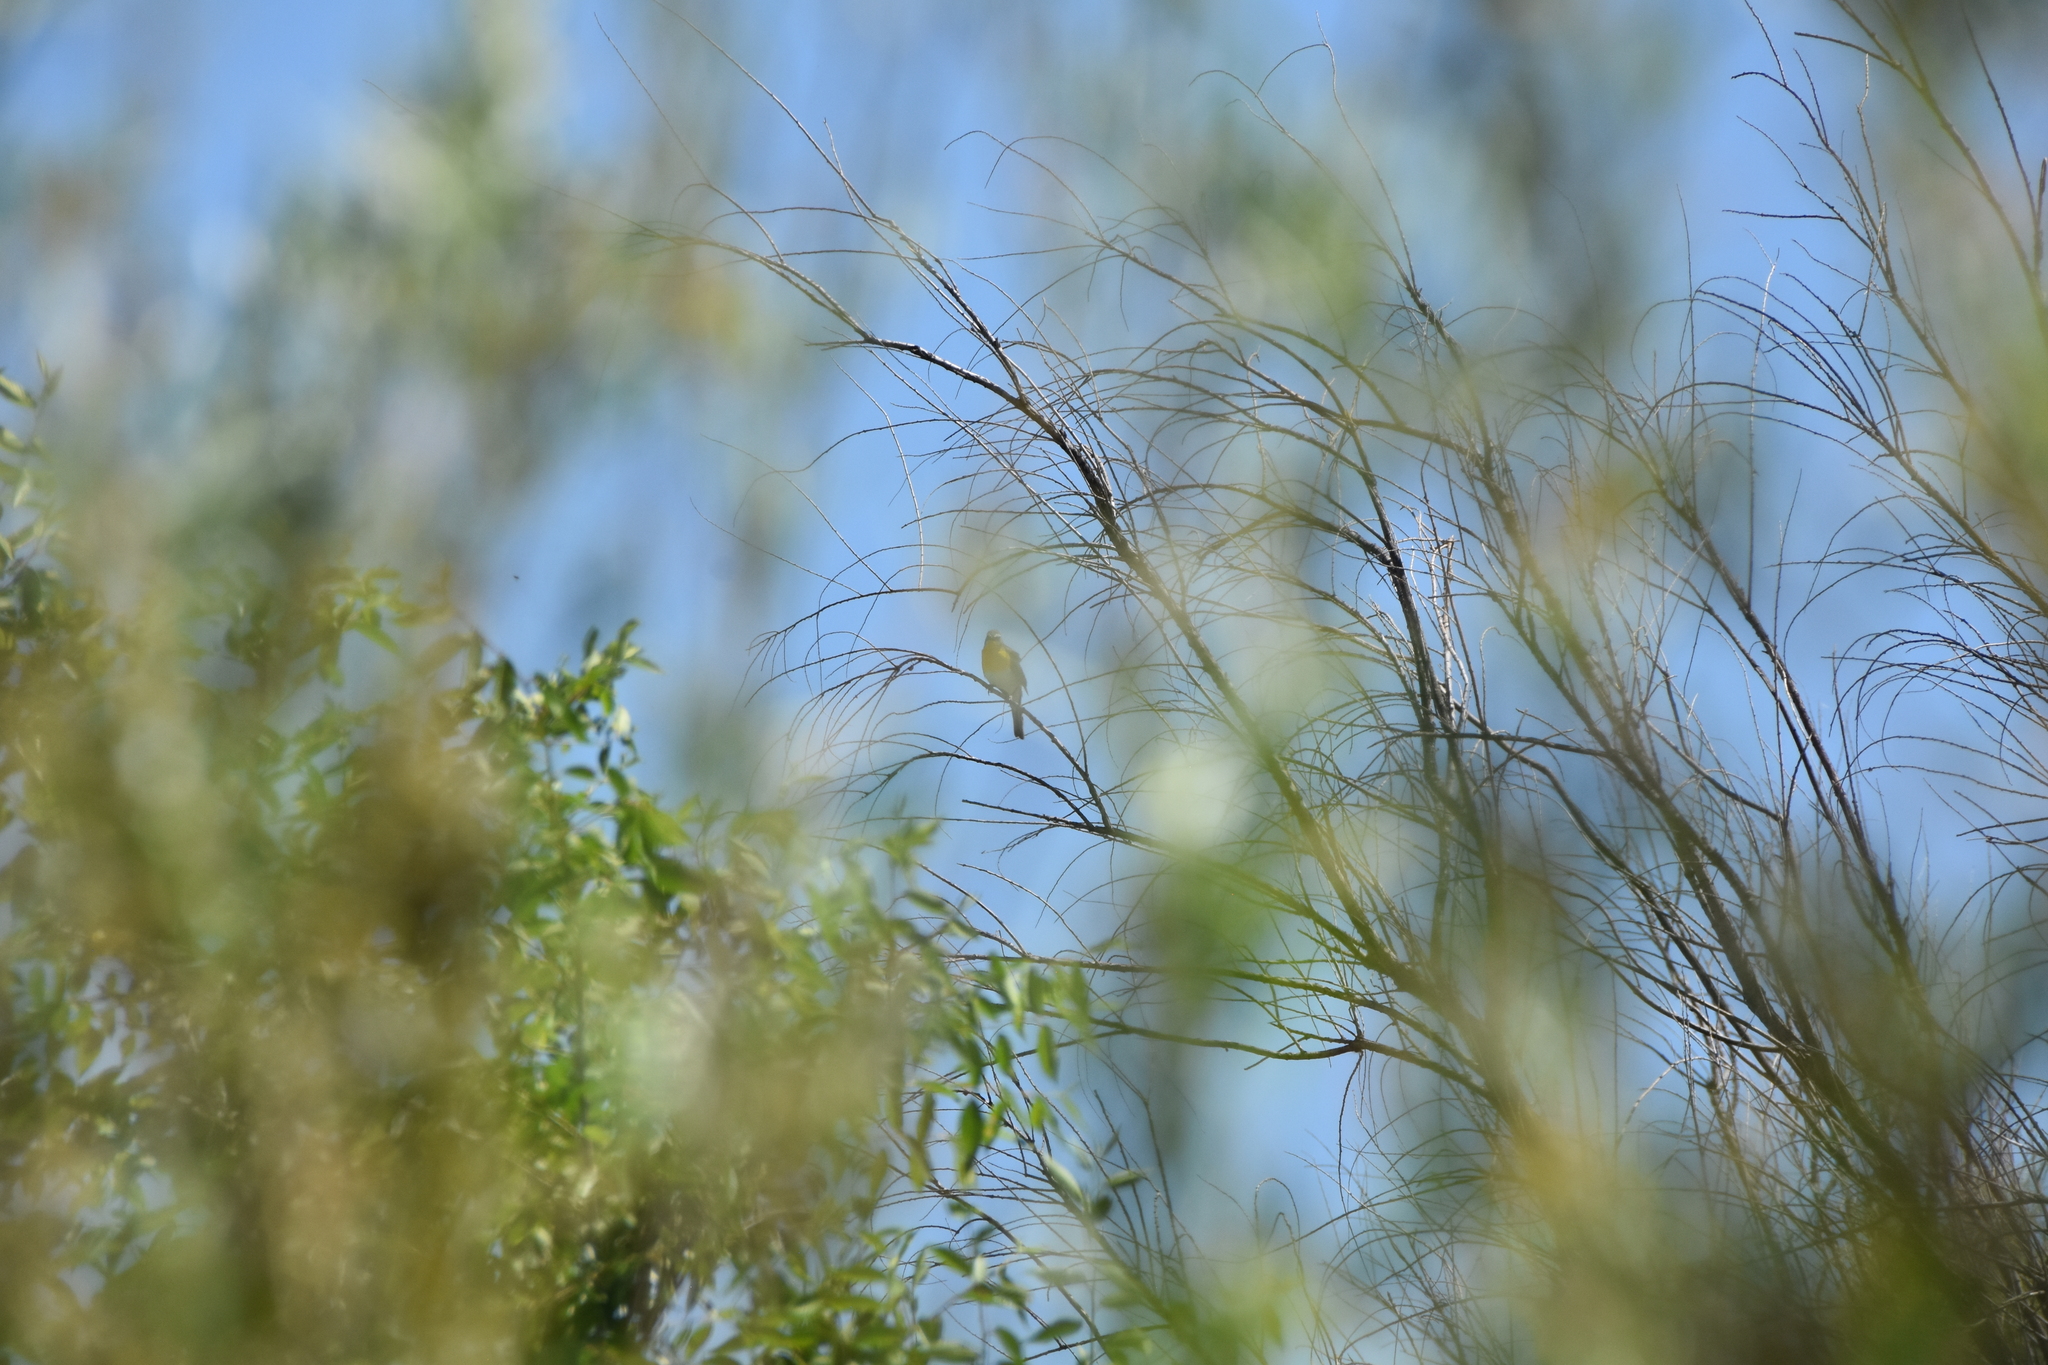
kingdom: Animalia
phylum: Chordata
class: Aves
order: Passeriformes
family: Parulidae
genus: Icteria
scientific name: Icteria virens
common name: Yellow-breasted chat
